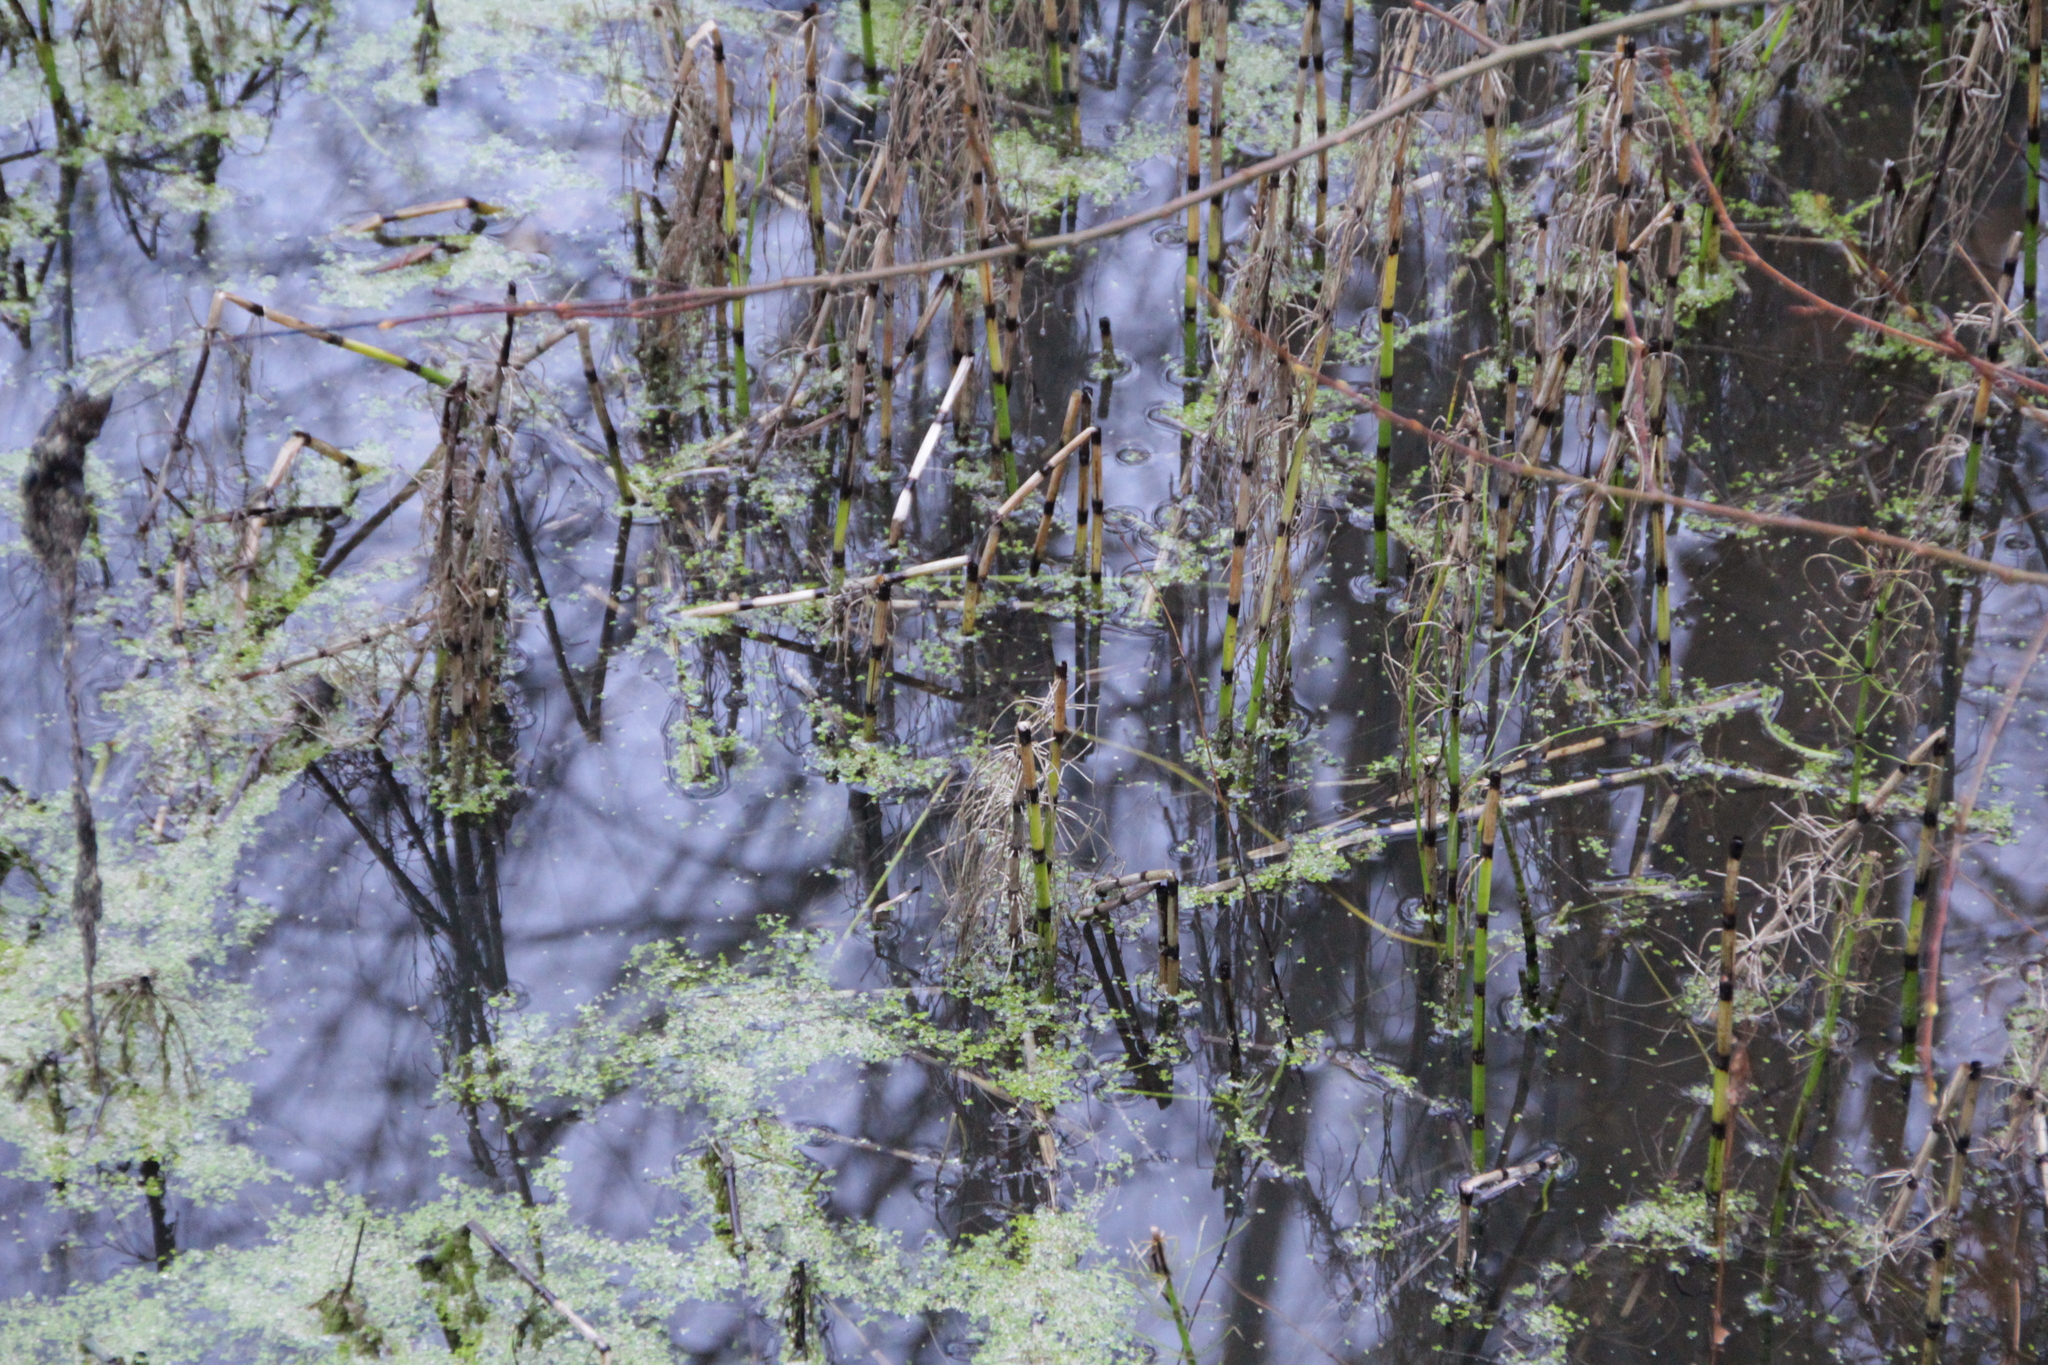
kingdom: Plantae
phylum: Tracheophyta
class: Polypodiopsida
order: Equisetales
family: Equisetaceae
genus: Equisetum
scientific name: Equisetum fluviatile
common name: Water horsetail
